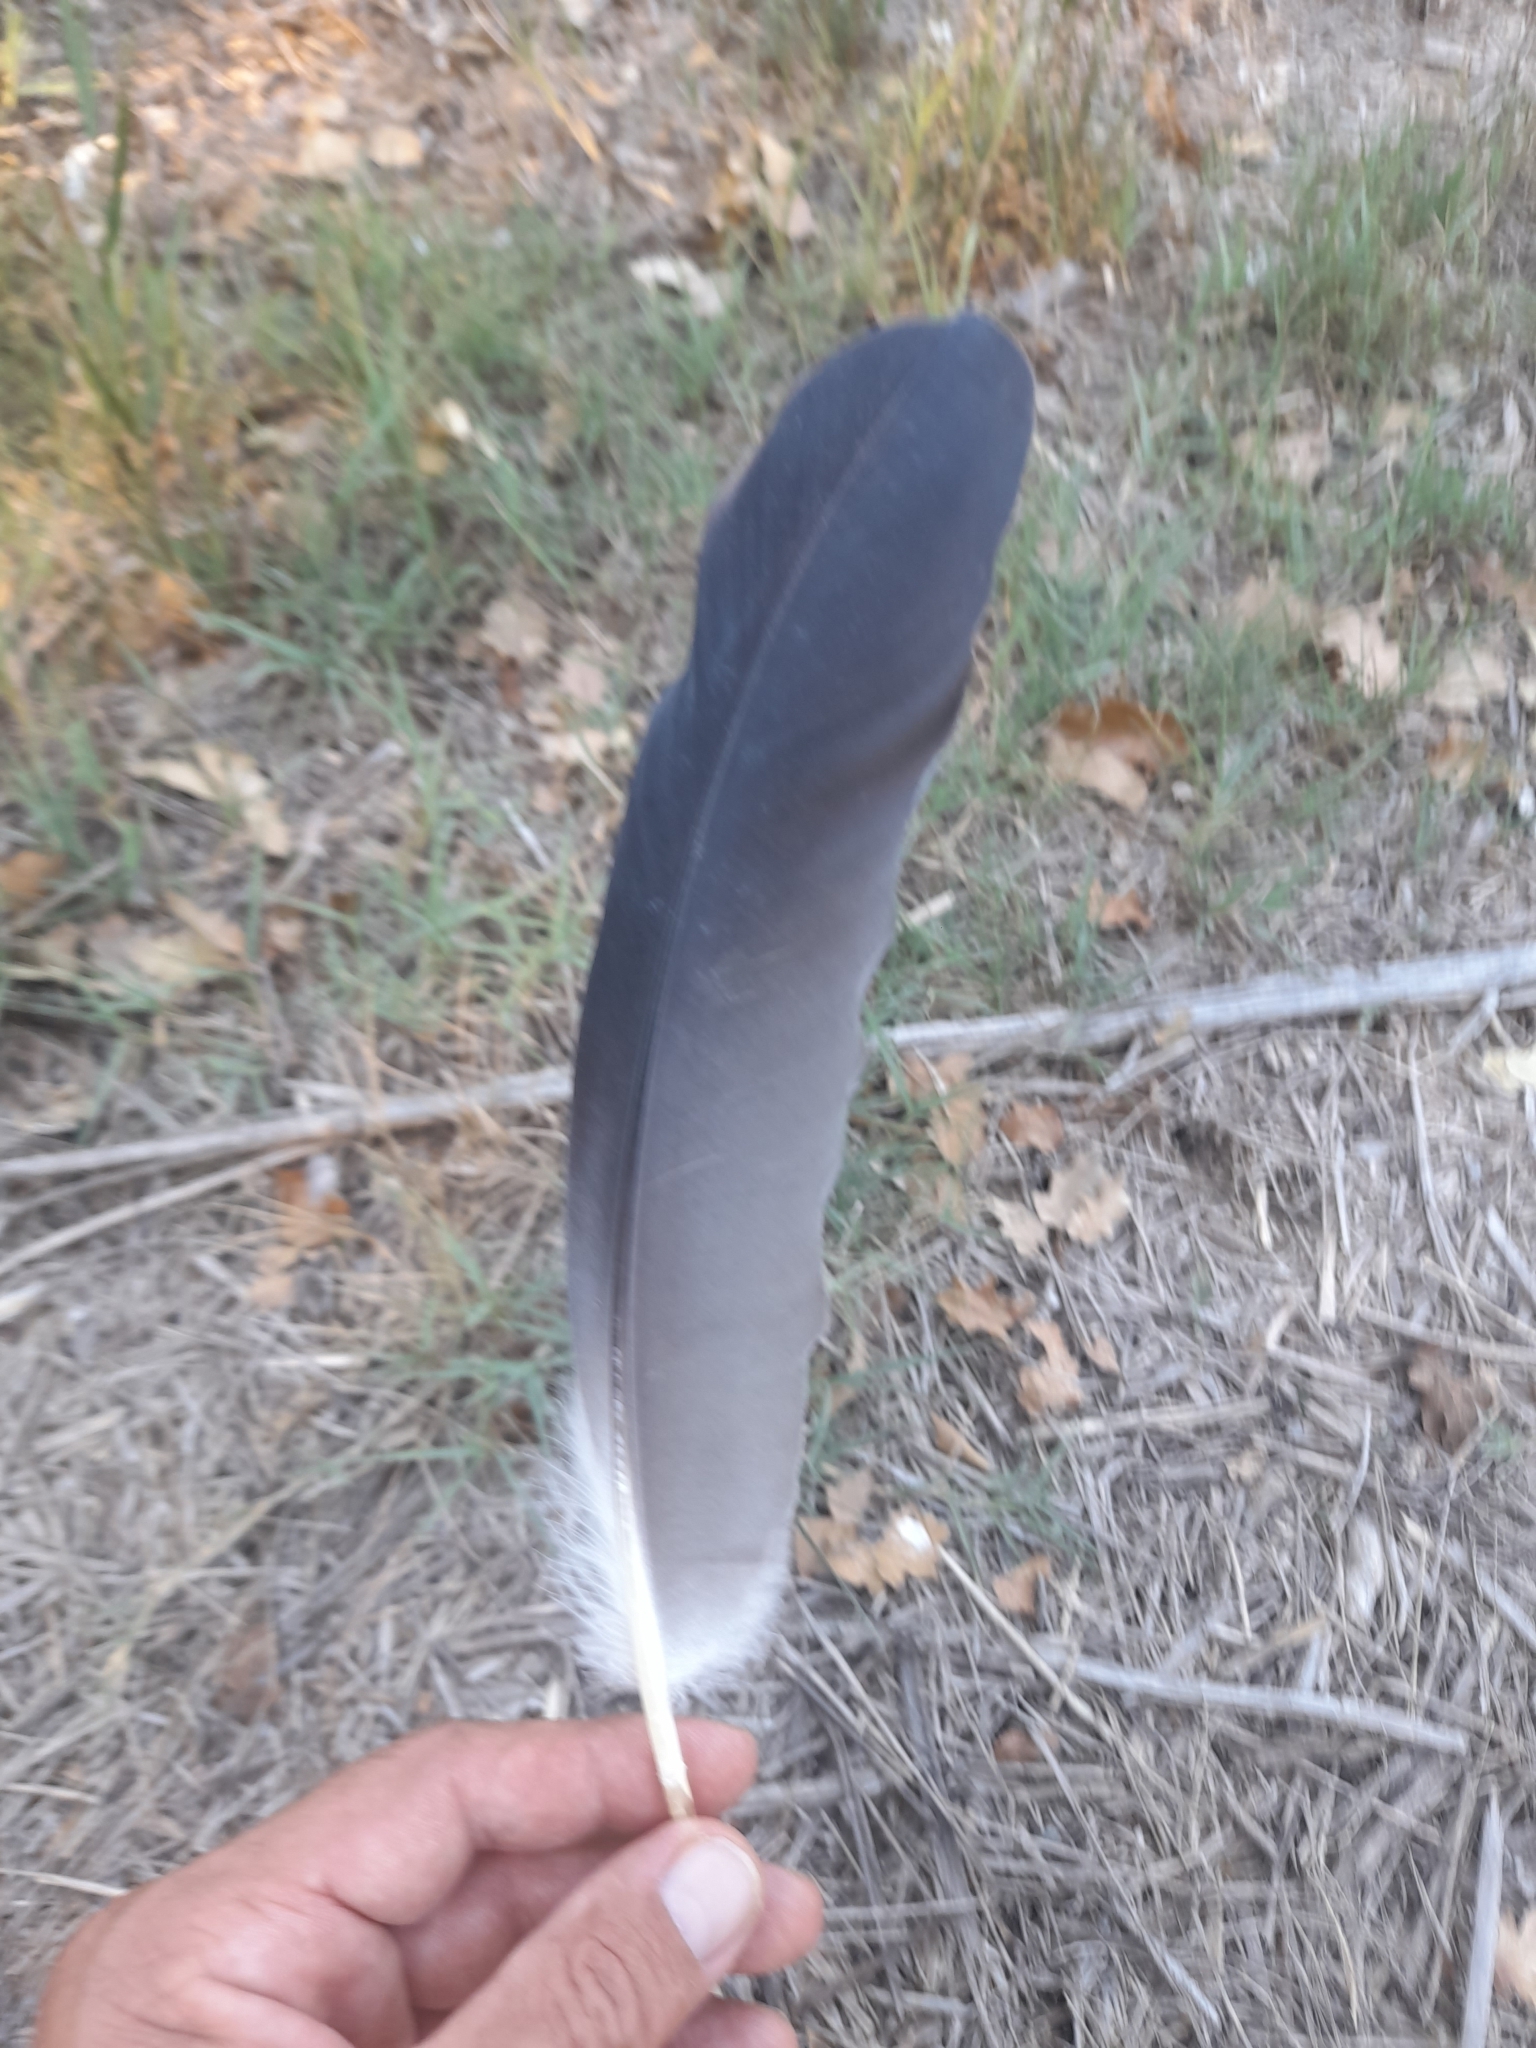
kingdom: Animalia
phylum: Chordata
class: Aves
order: Pelecaniformes
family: Ardeidae
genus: Ardea
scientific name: Ardea cinerea
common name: Grey heron
